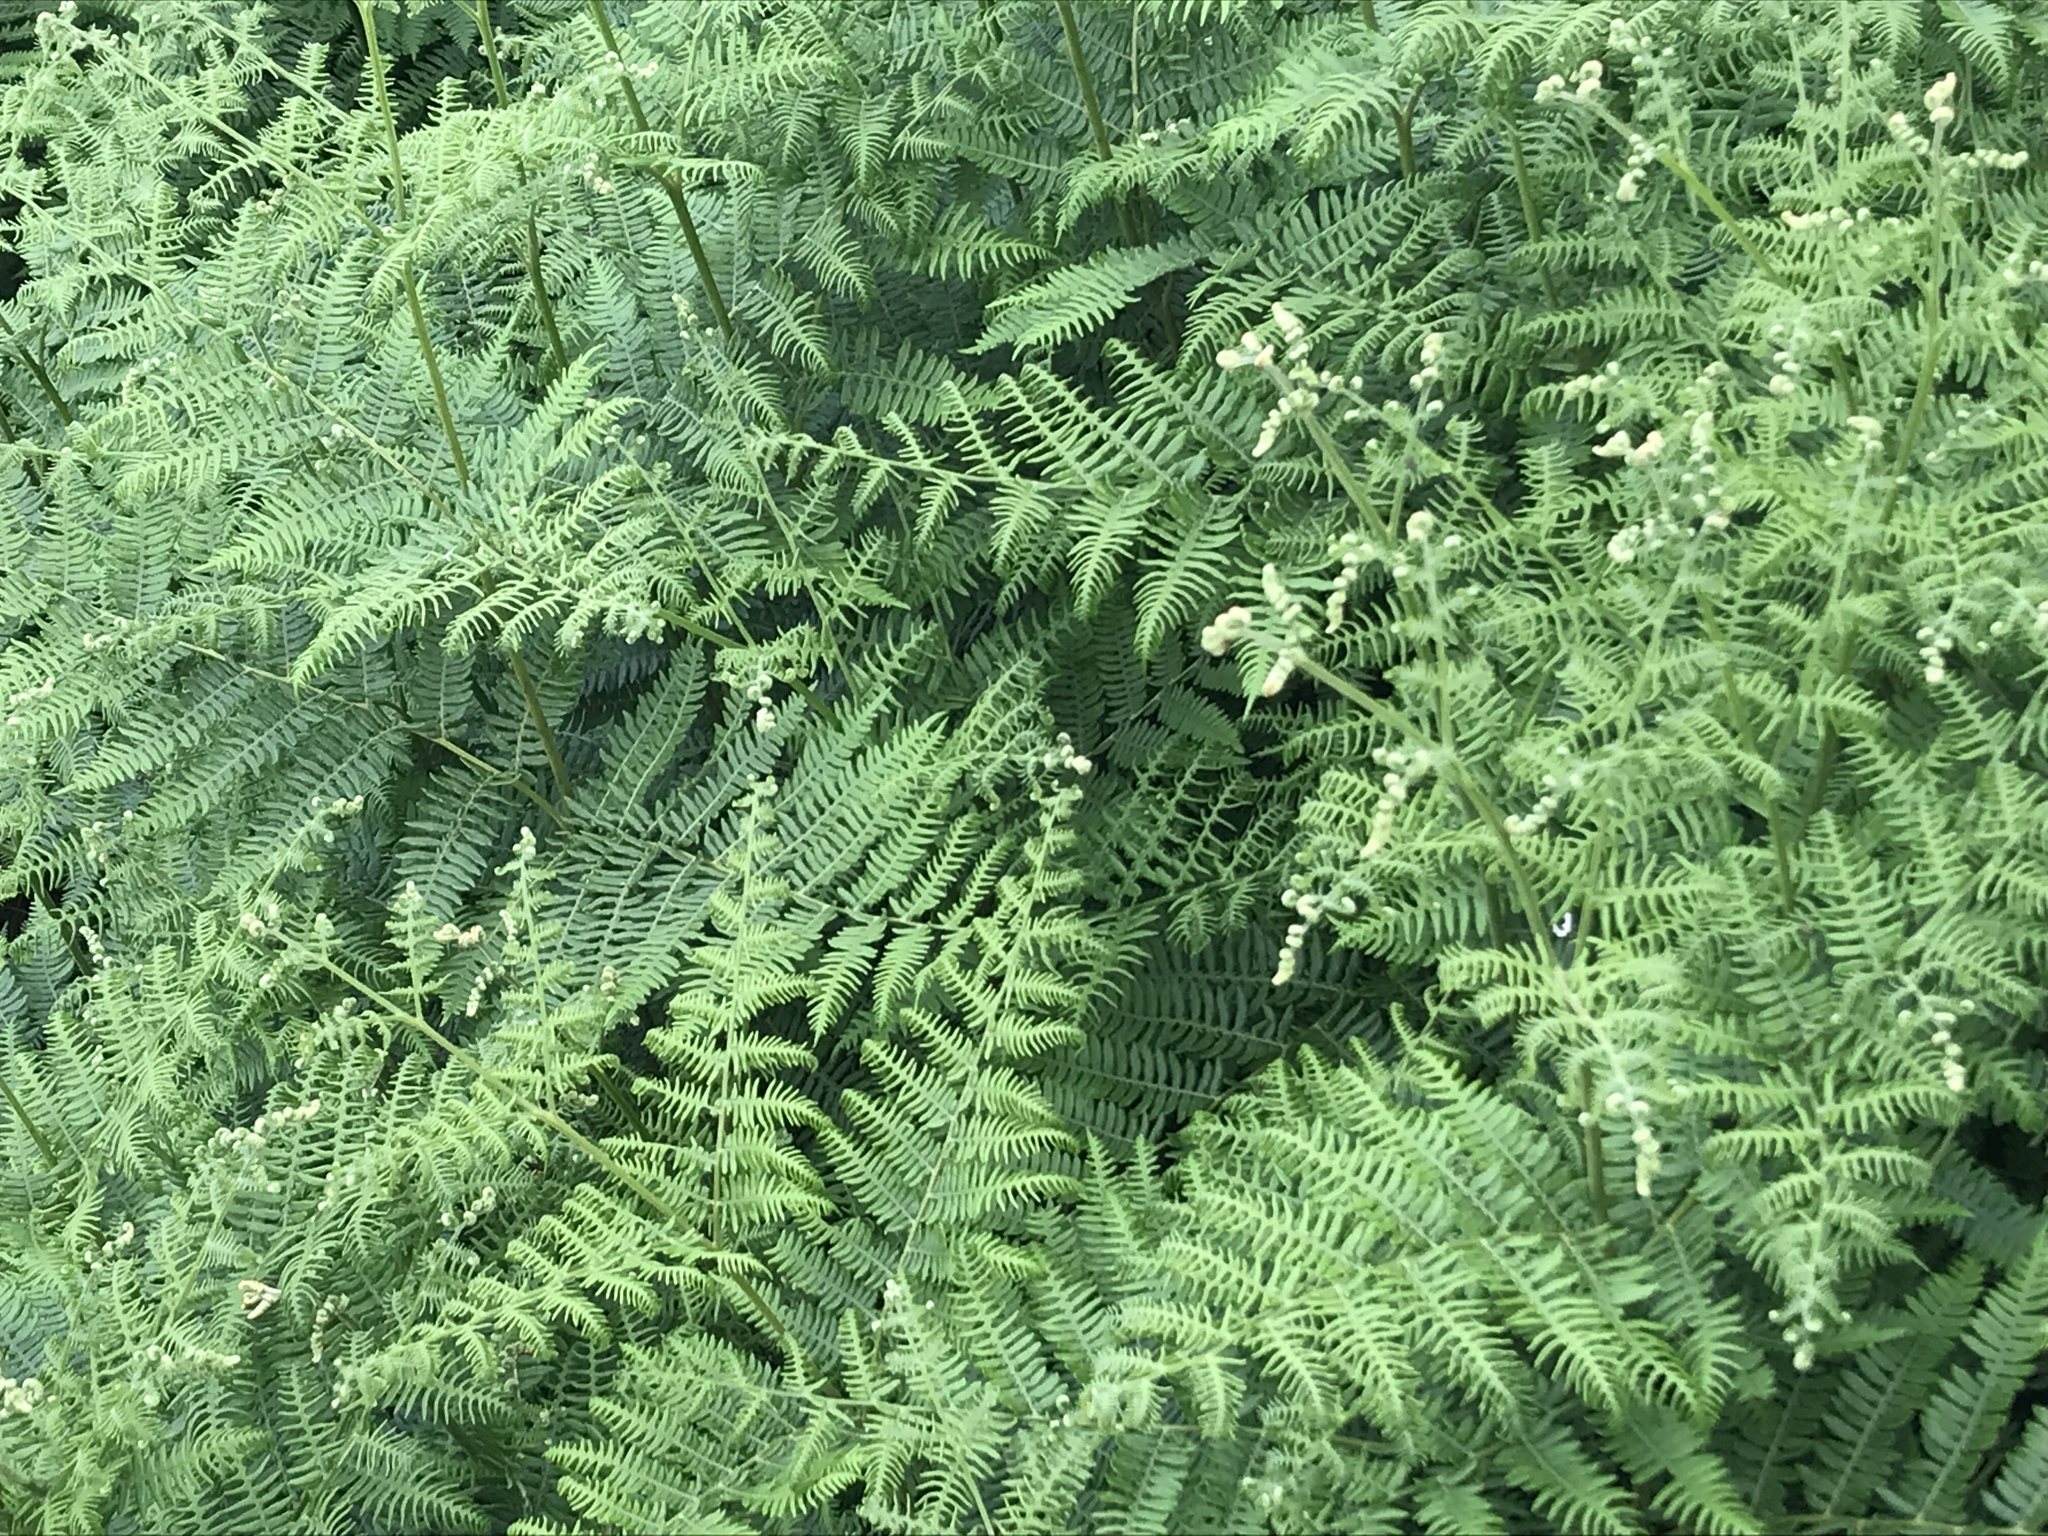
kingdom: Plantae
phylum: Tracheophyta
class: Polypodiopsida
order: Polypodiales
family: Dennstaedtiaceae
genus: Pteridium
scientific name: Pteridium aquilinum
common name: Bracken
